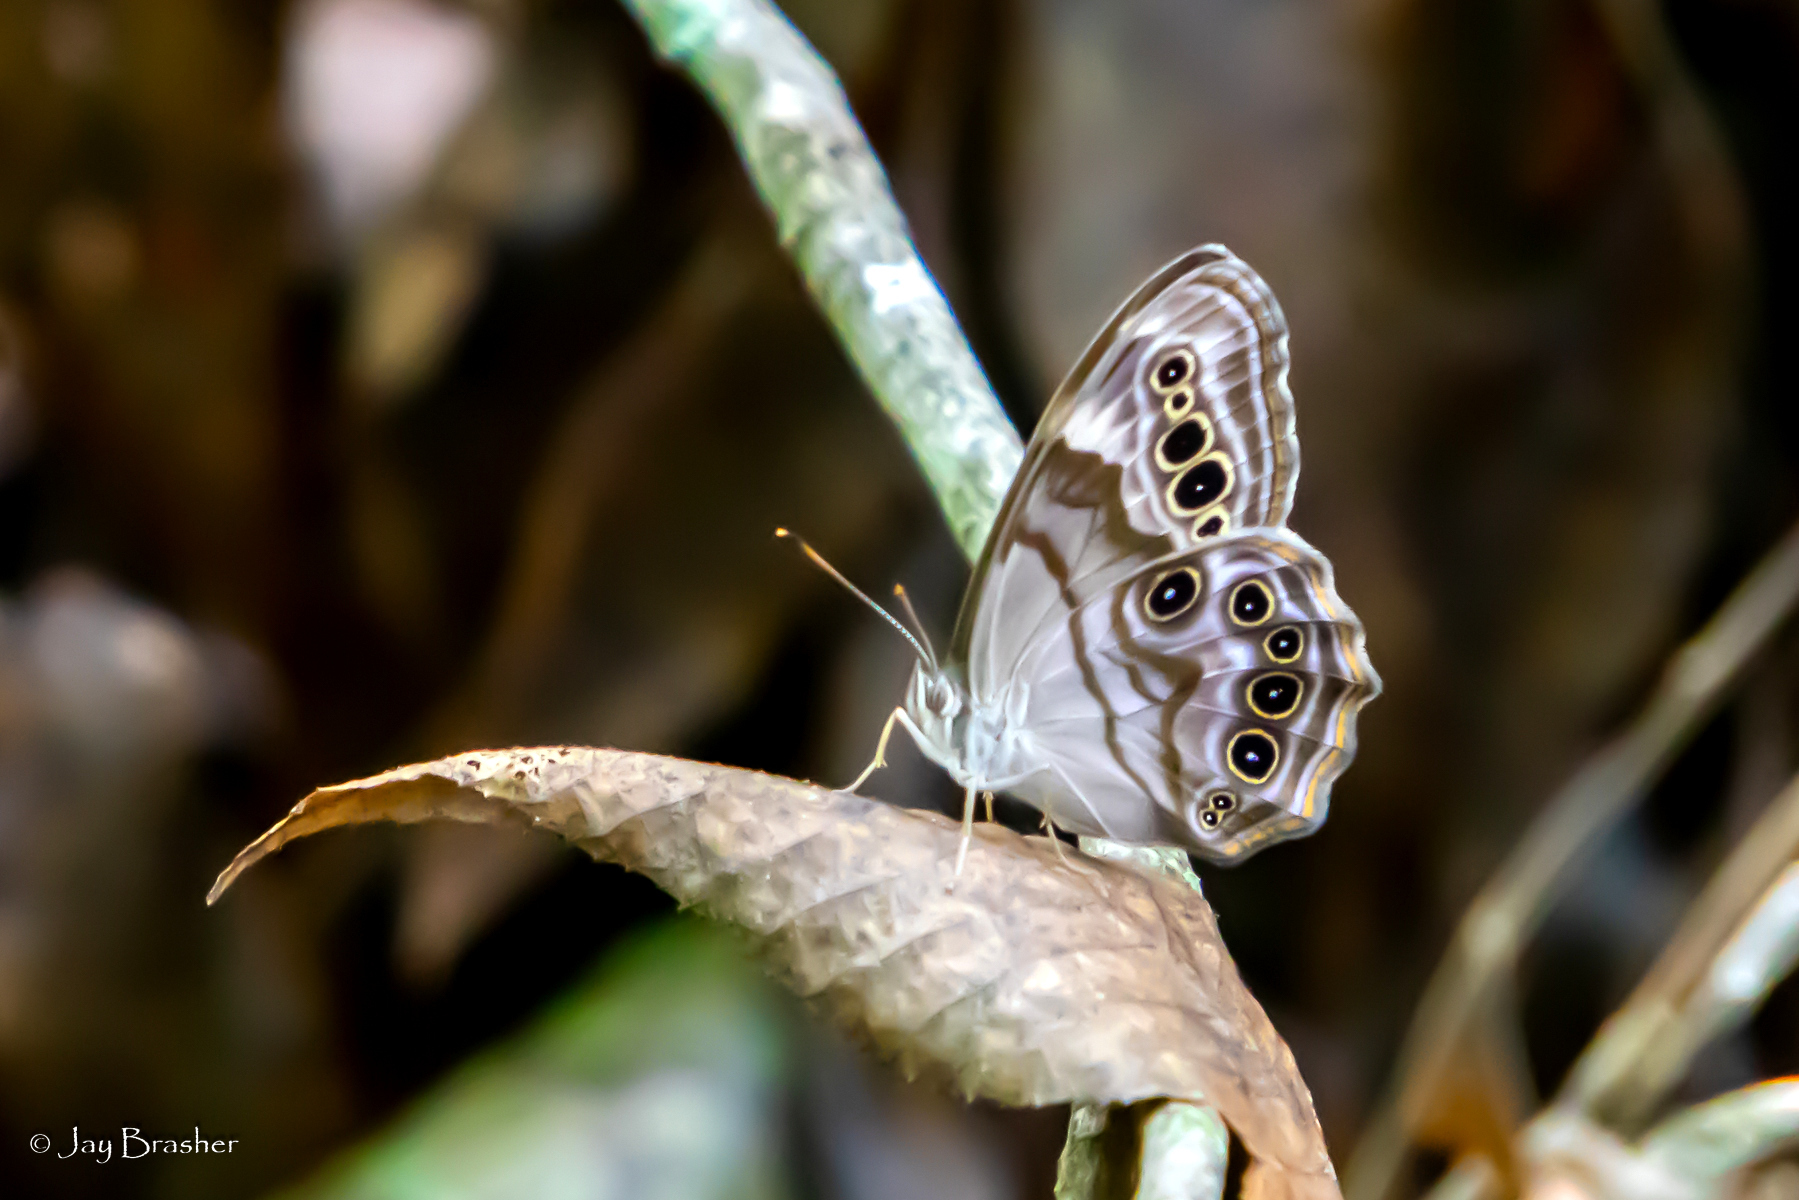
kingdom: Animalia
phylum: Arthropoda
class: Insecta
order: Lepidoptera
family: Nymphalidae
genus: Lethe
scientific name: Lethe anthedon
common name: Northern pearly-eye
